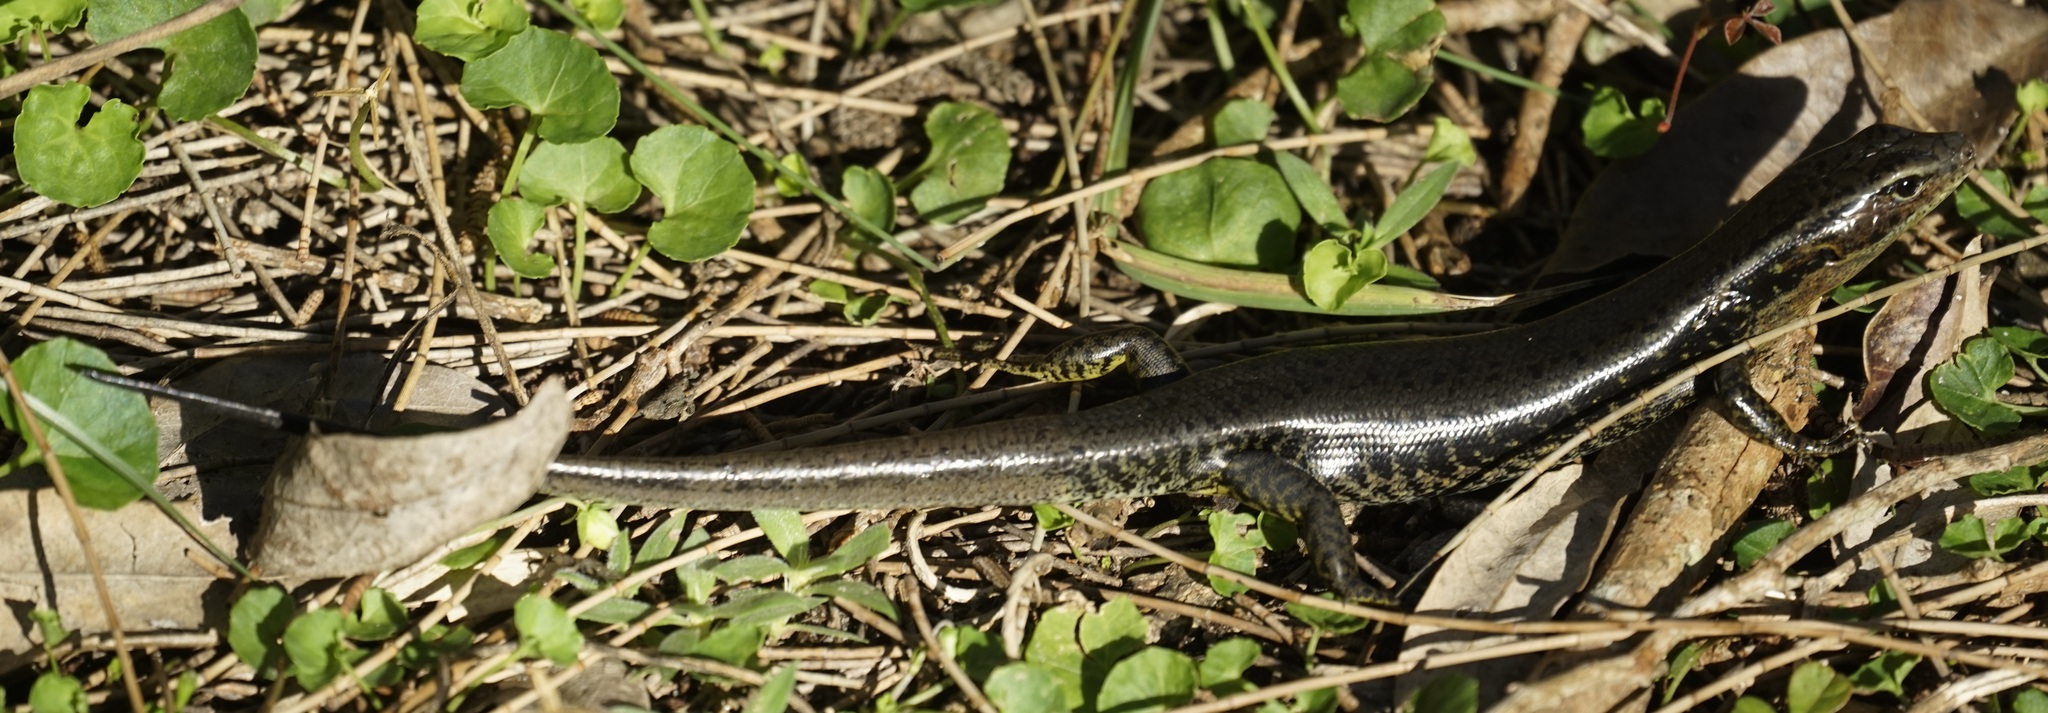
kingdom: Animalia
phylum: Chordata
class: Squamata
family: Scincidae
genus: Eulamprus
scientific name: Eulamprus quoyii
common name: Eastern water skink
